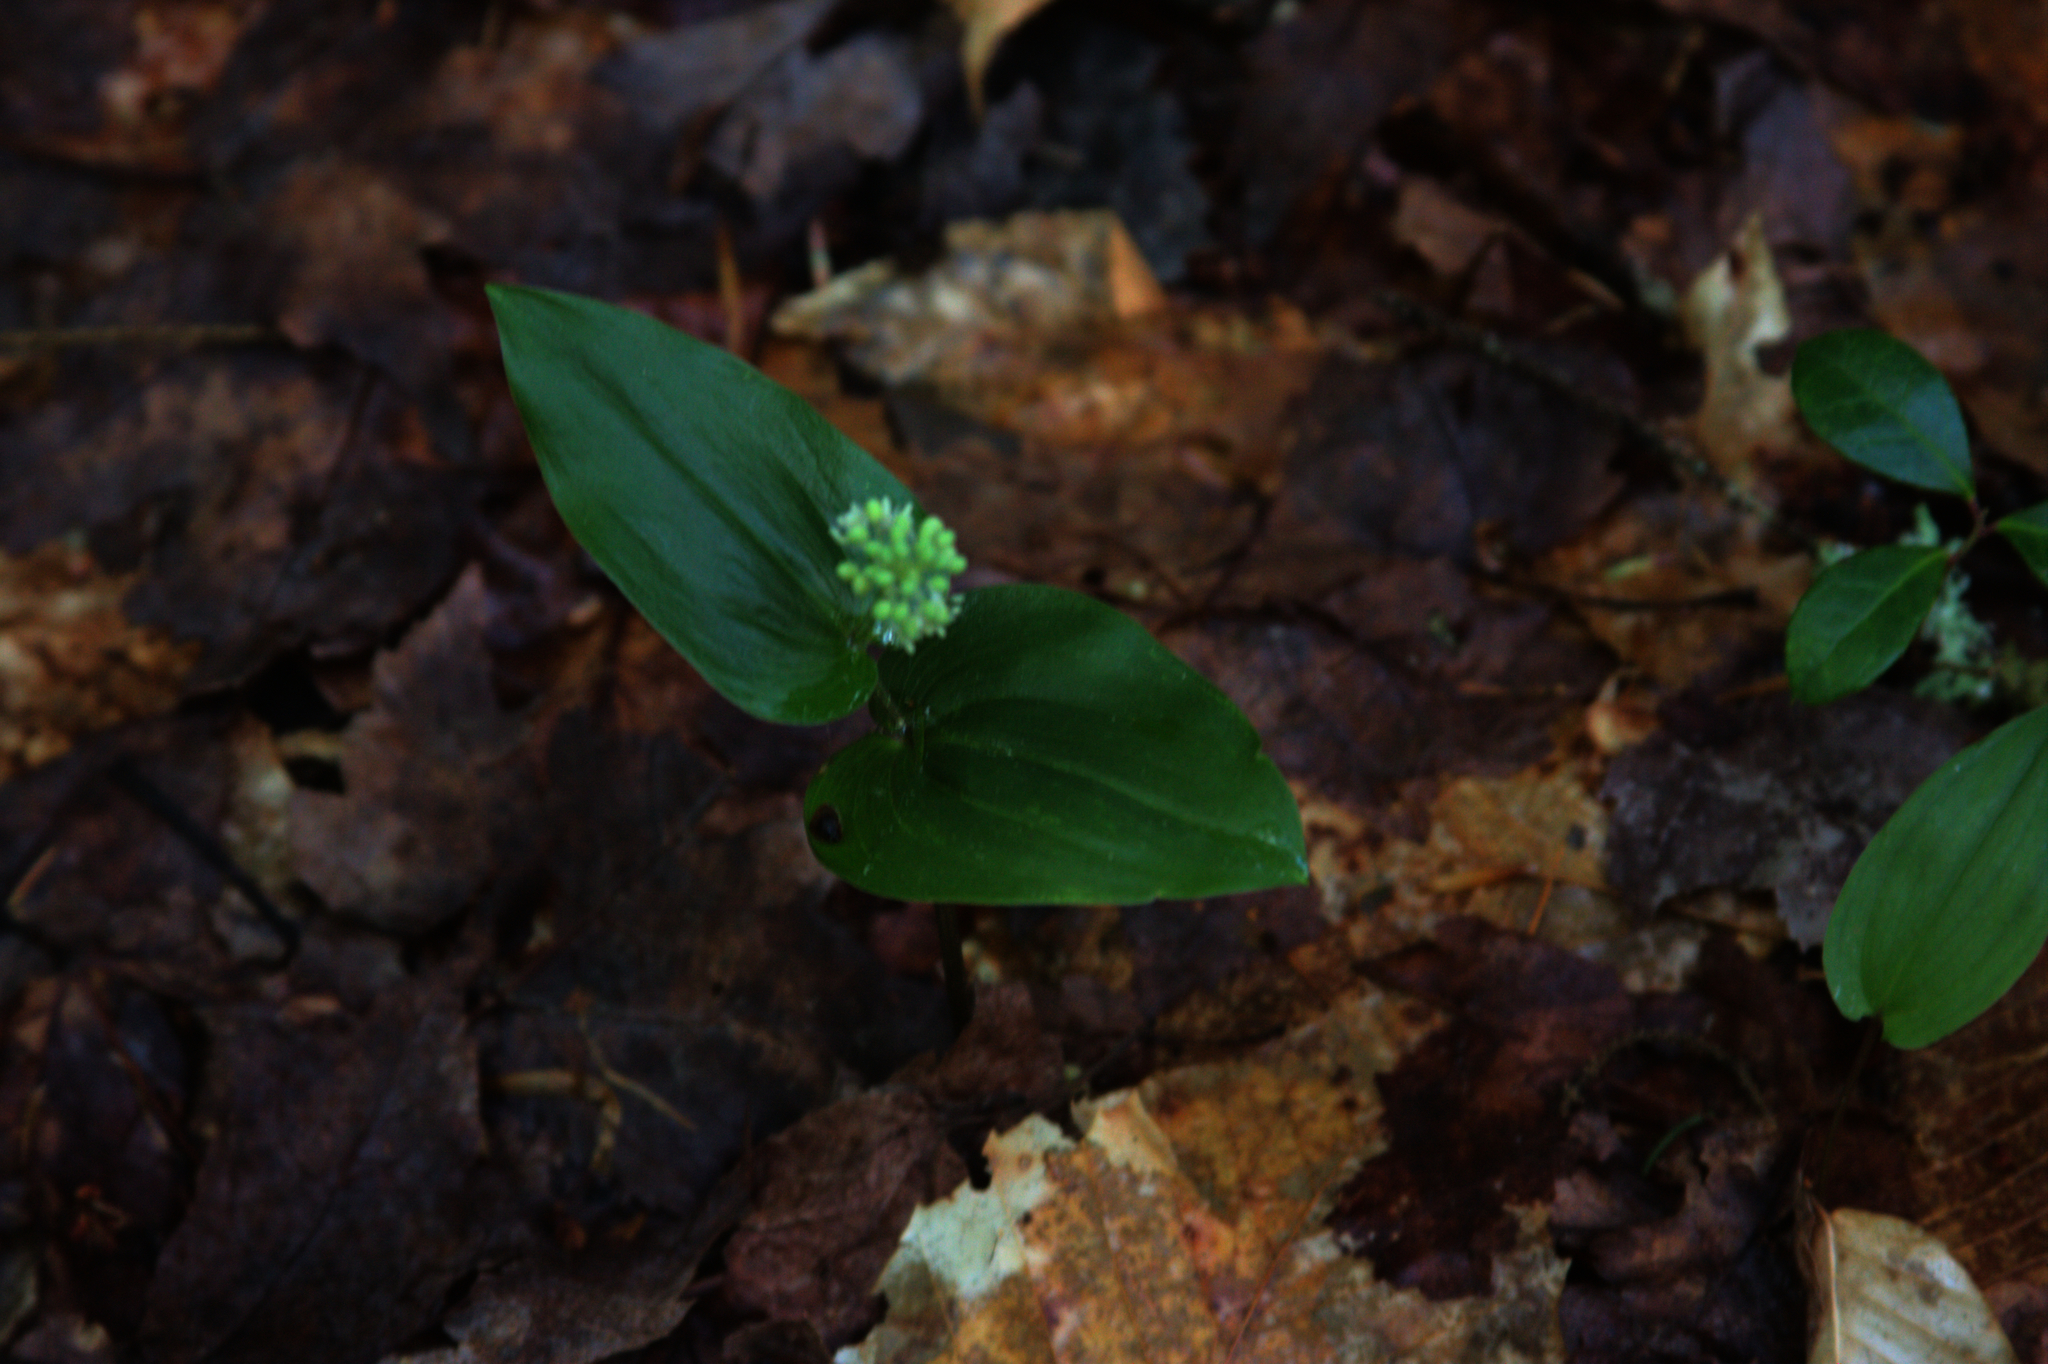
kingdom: Plantae
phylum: Tracheophyta
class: Liliopsida
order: Asparagales
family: Asparagaceae
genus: Maianthemum
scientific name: Maianthemum canadense
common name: False lily-of-the-valley
